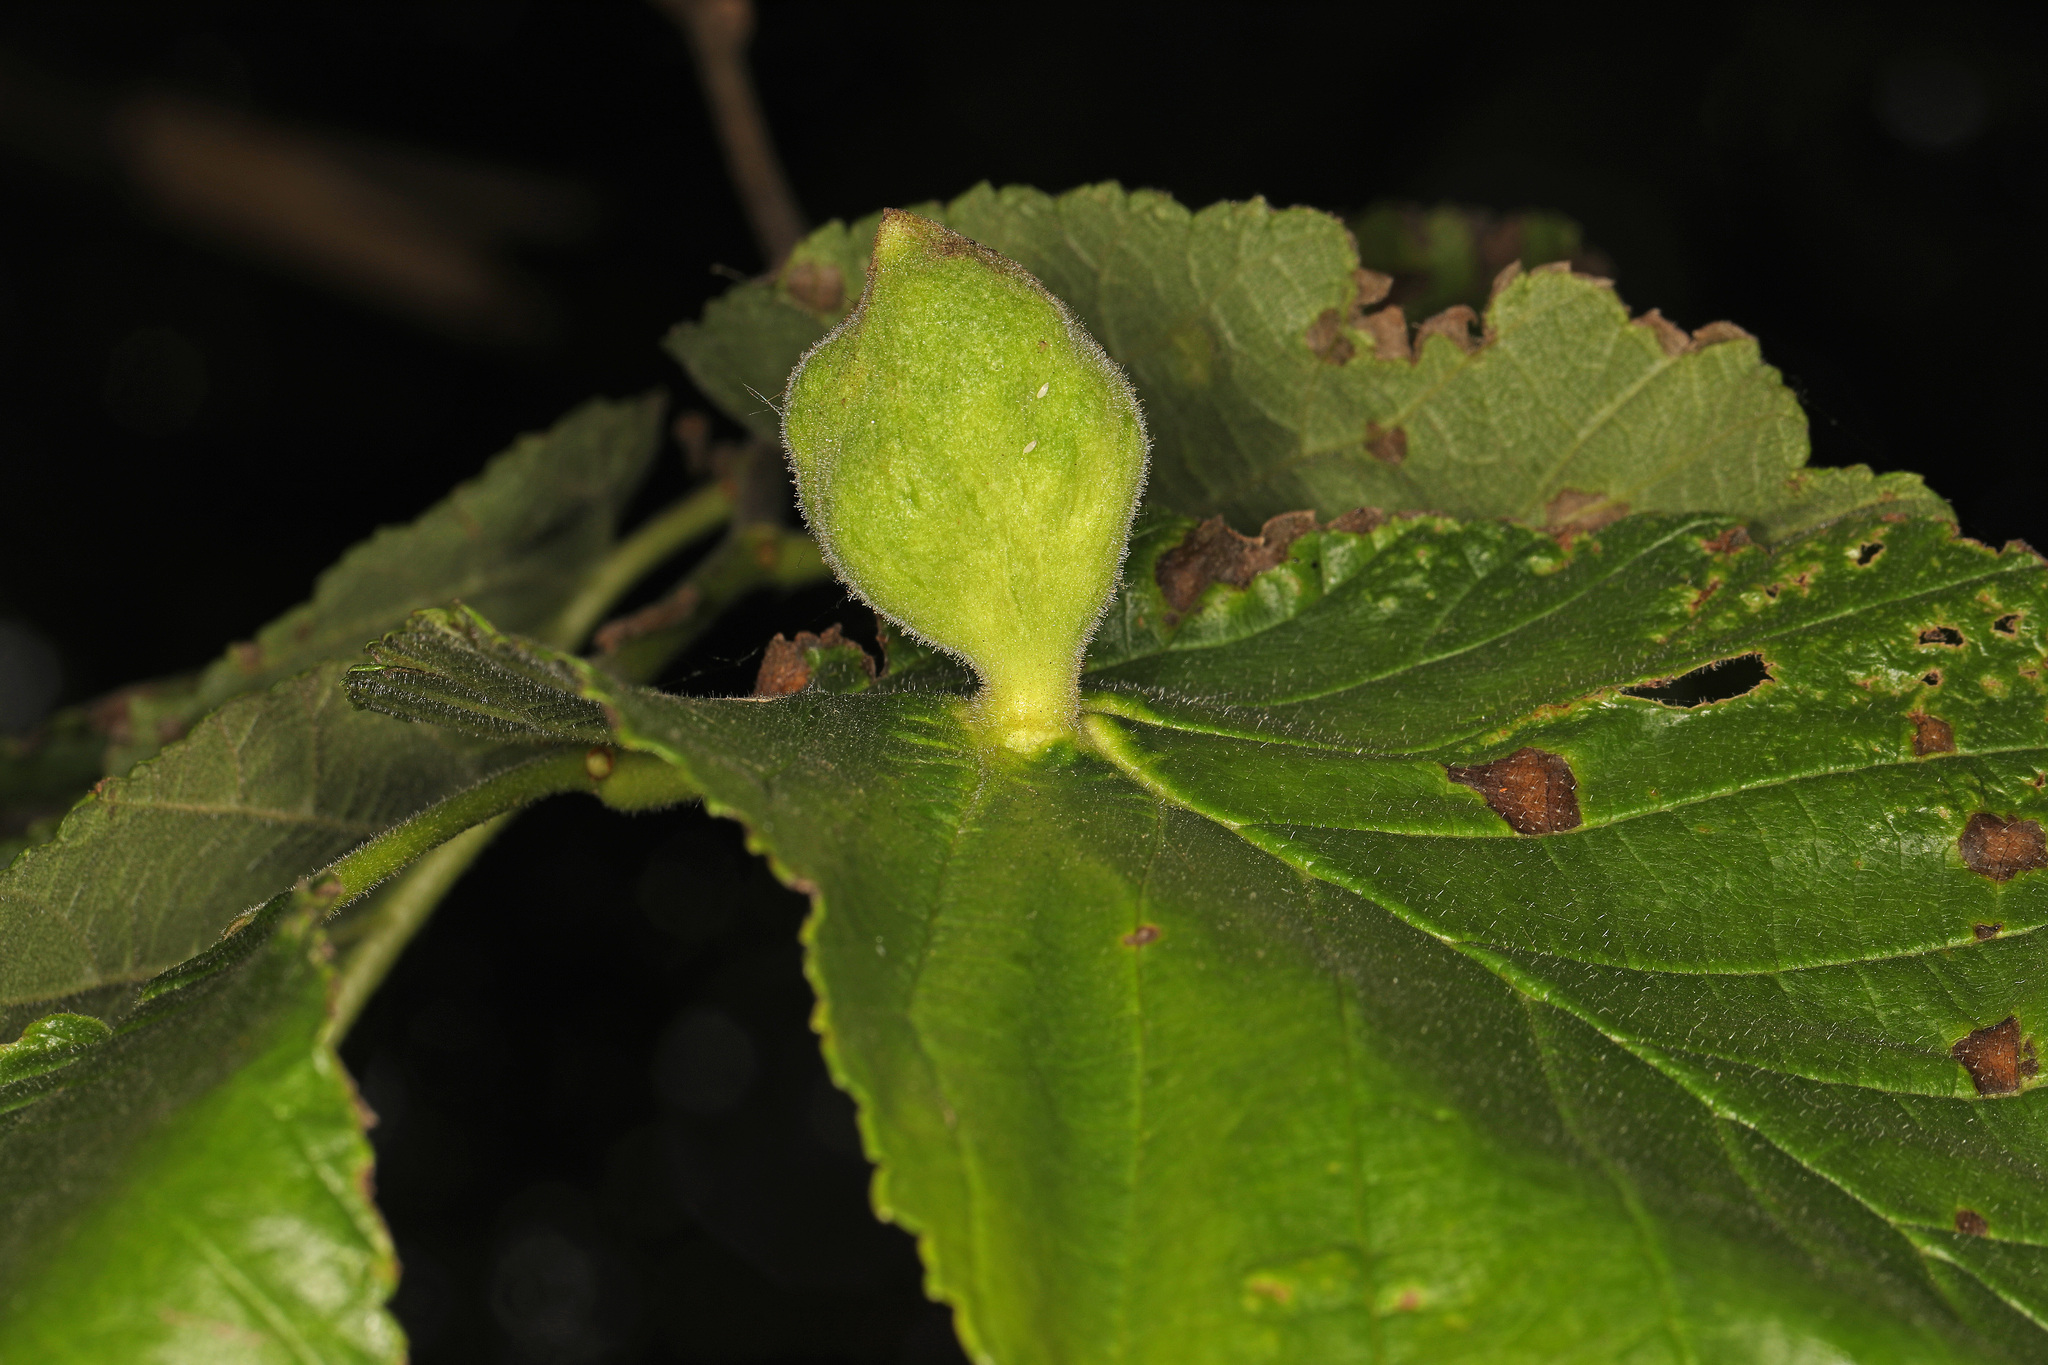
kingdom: Animalia
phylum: Arthropoda
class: Insecta
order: Hemiptera
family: Aphididae
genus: Kaltenbachiella
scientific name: Kaltenbachiella ulmifusa
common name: Elm pouchgall aphid
